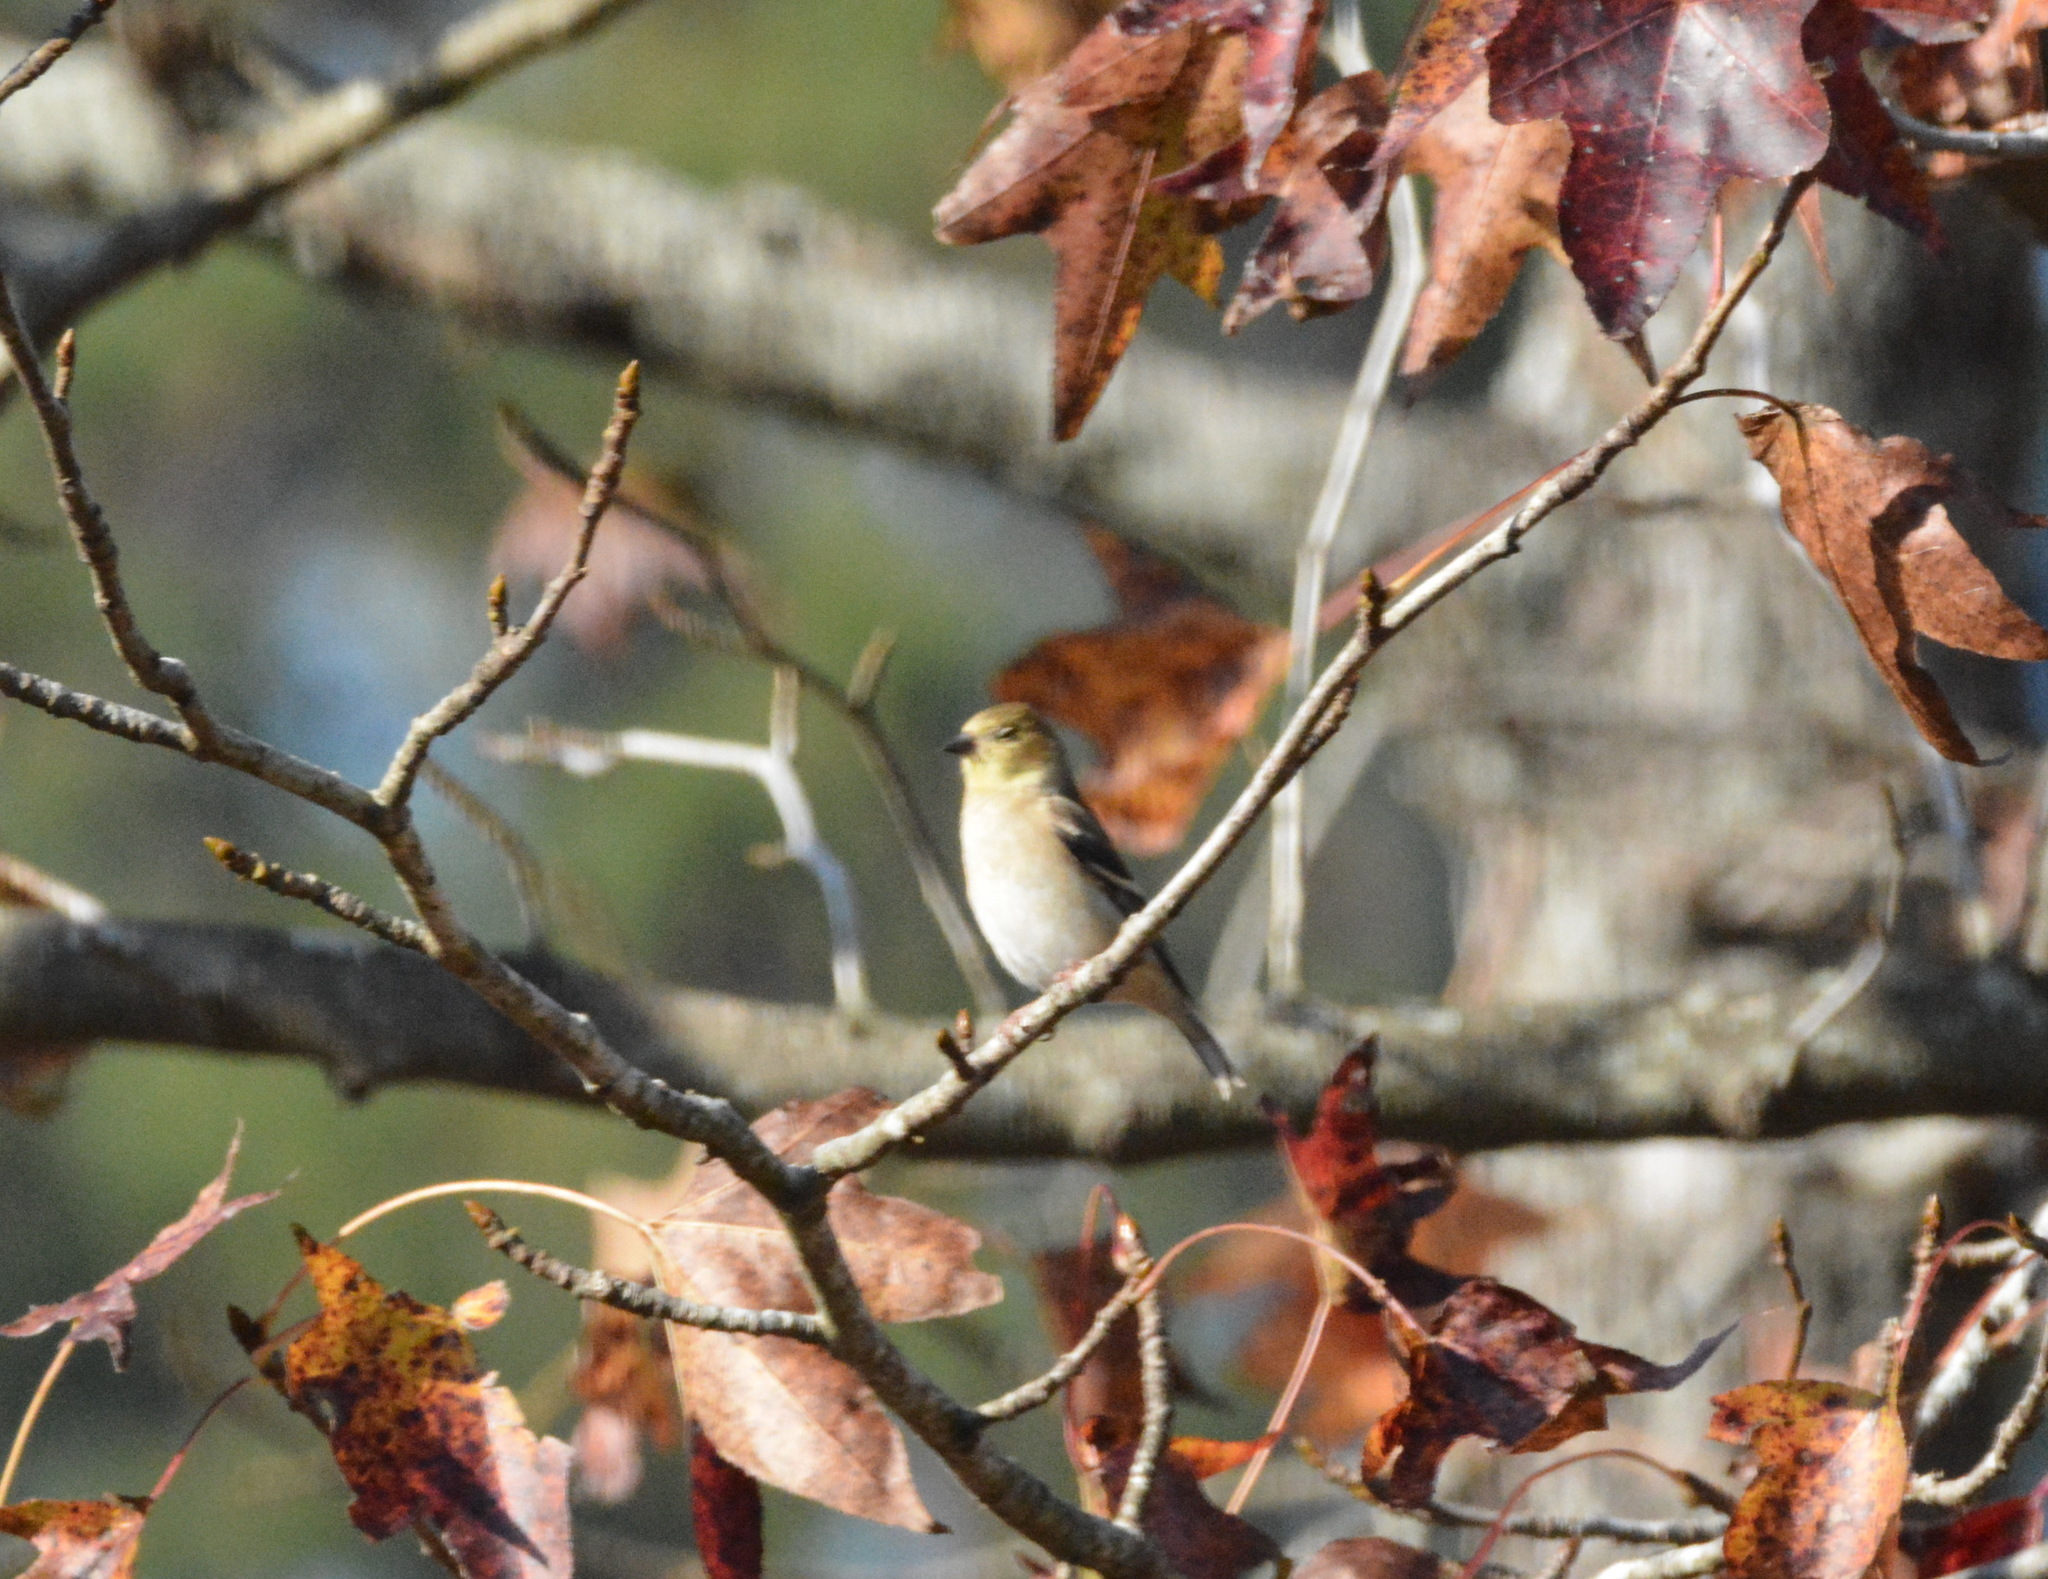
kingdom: Animalia
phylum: Chordata
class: Aves
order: Passeriformes
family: Fringillidae
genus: Spinus
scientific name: Spinus tristis
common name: American goldfinch
